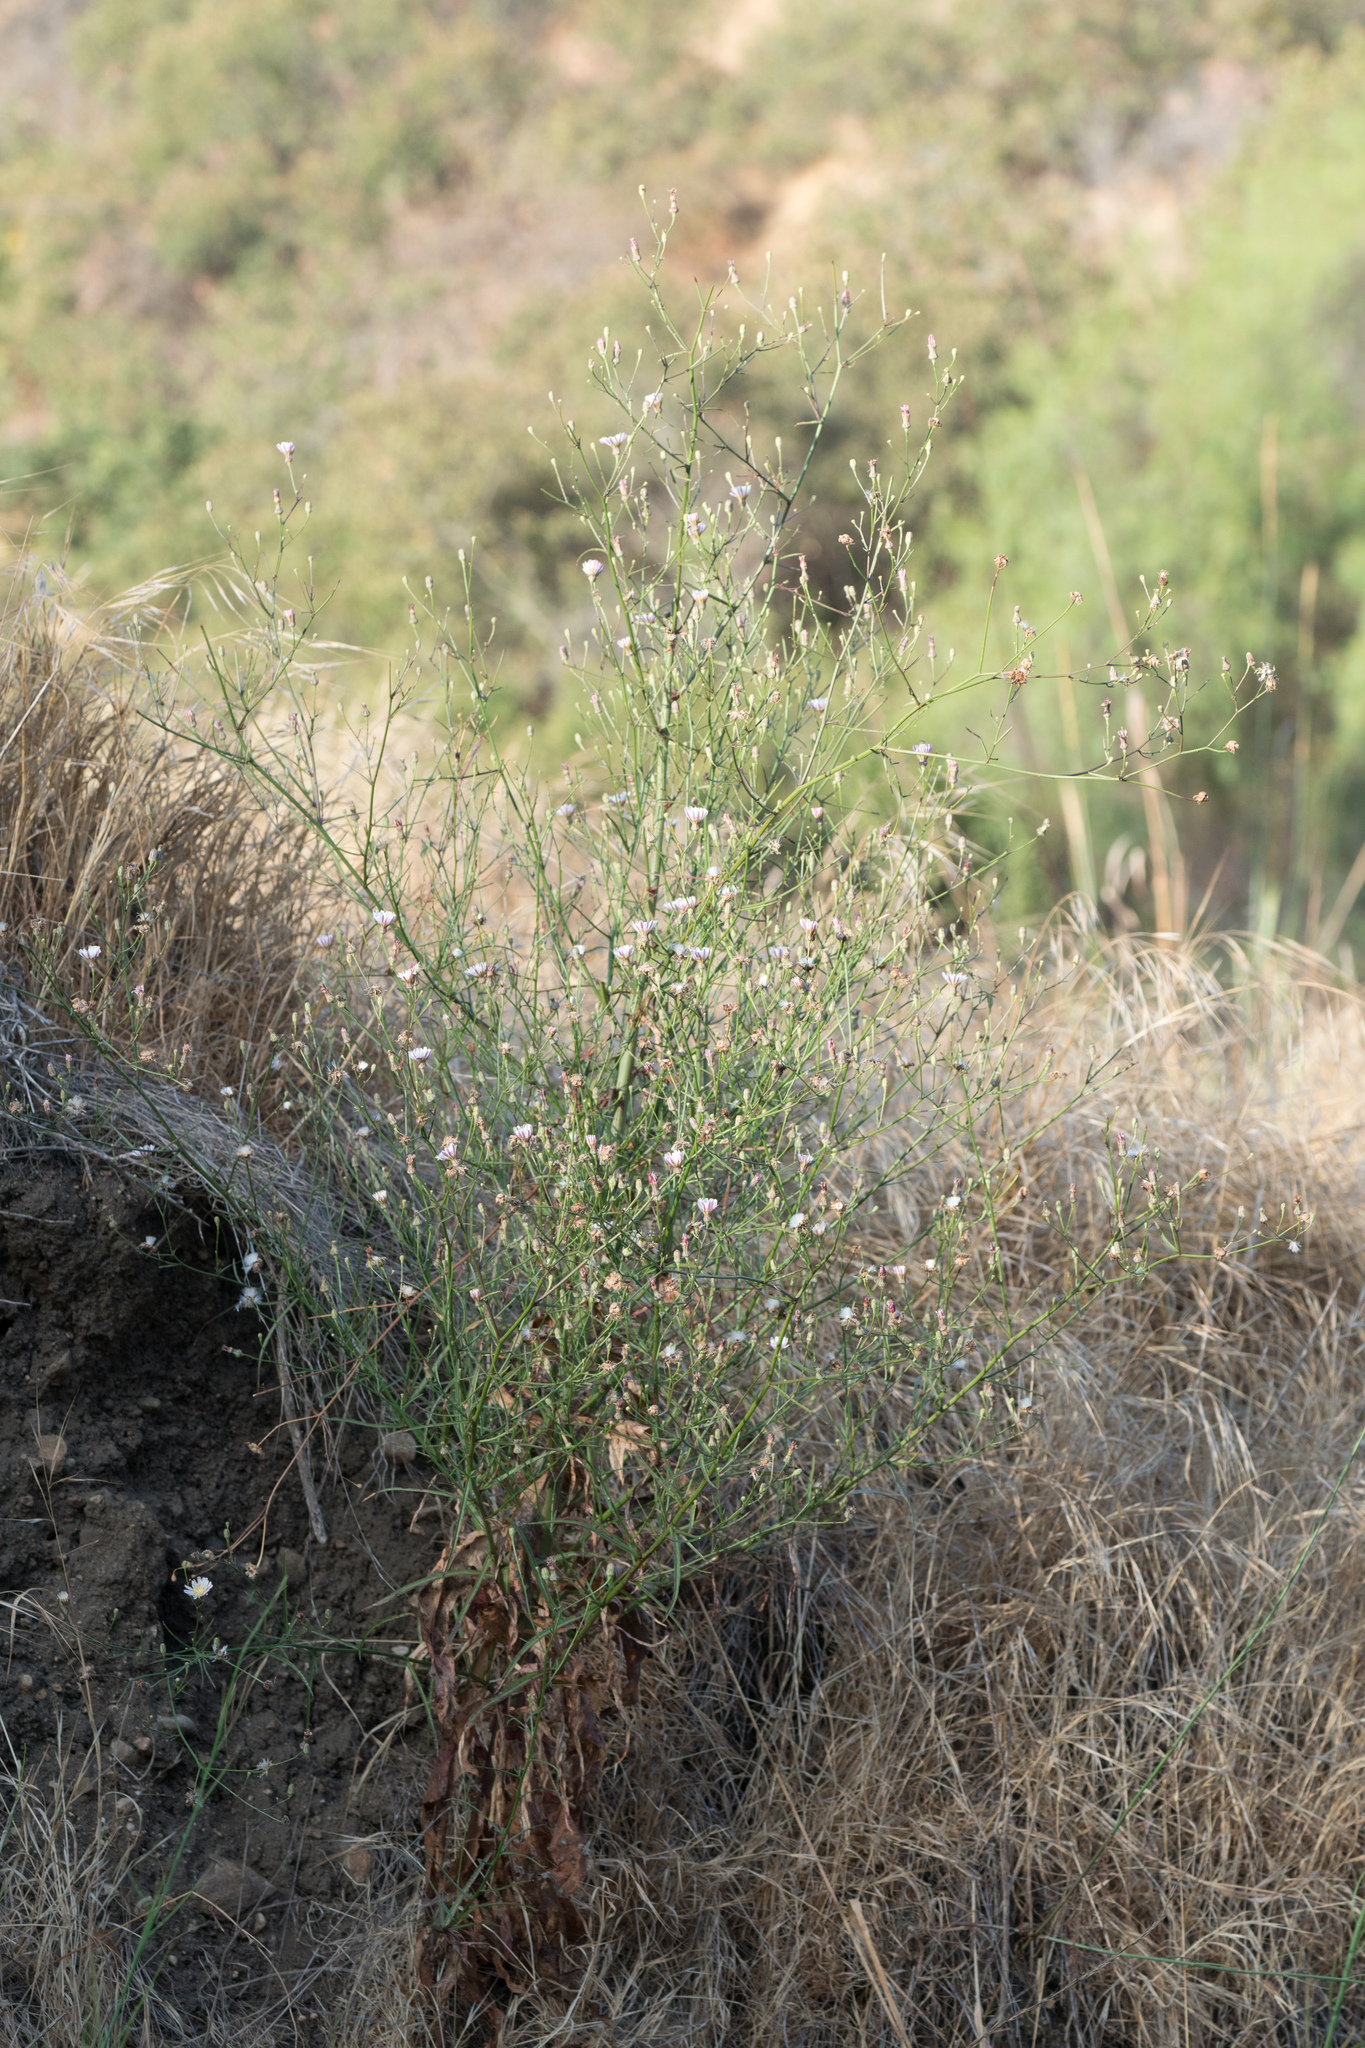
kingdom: Plantae
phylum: Tracheophyta
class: Magnoliopsida
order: Asterales
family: Asteraceae
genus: Malacothrix
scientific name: Malacothrix saxatilis
